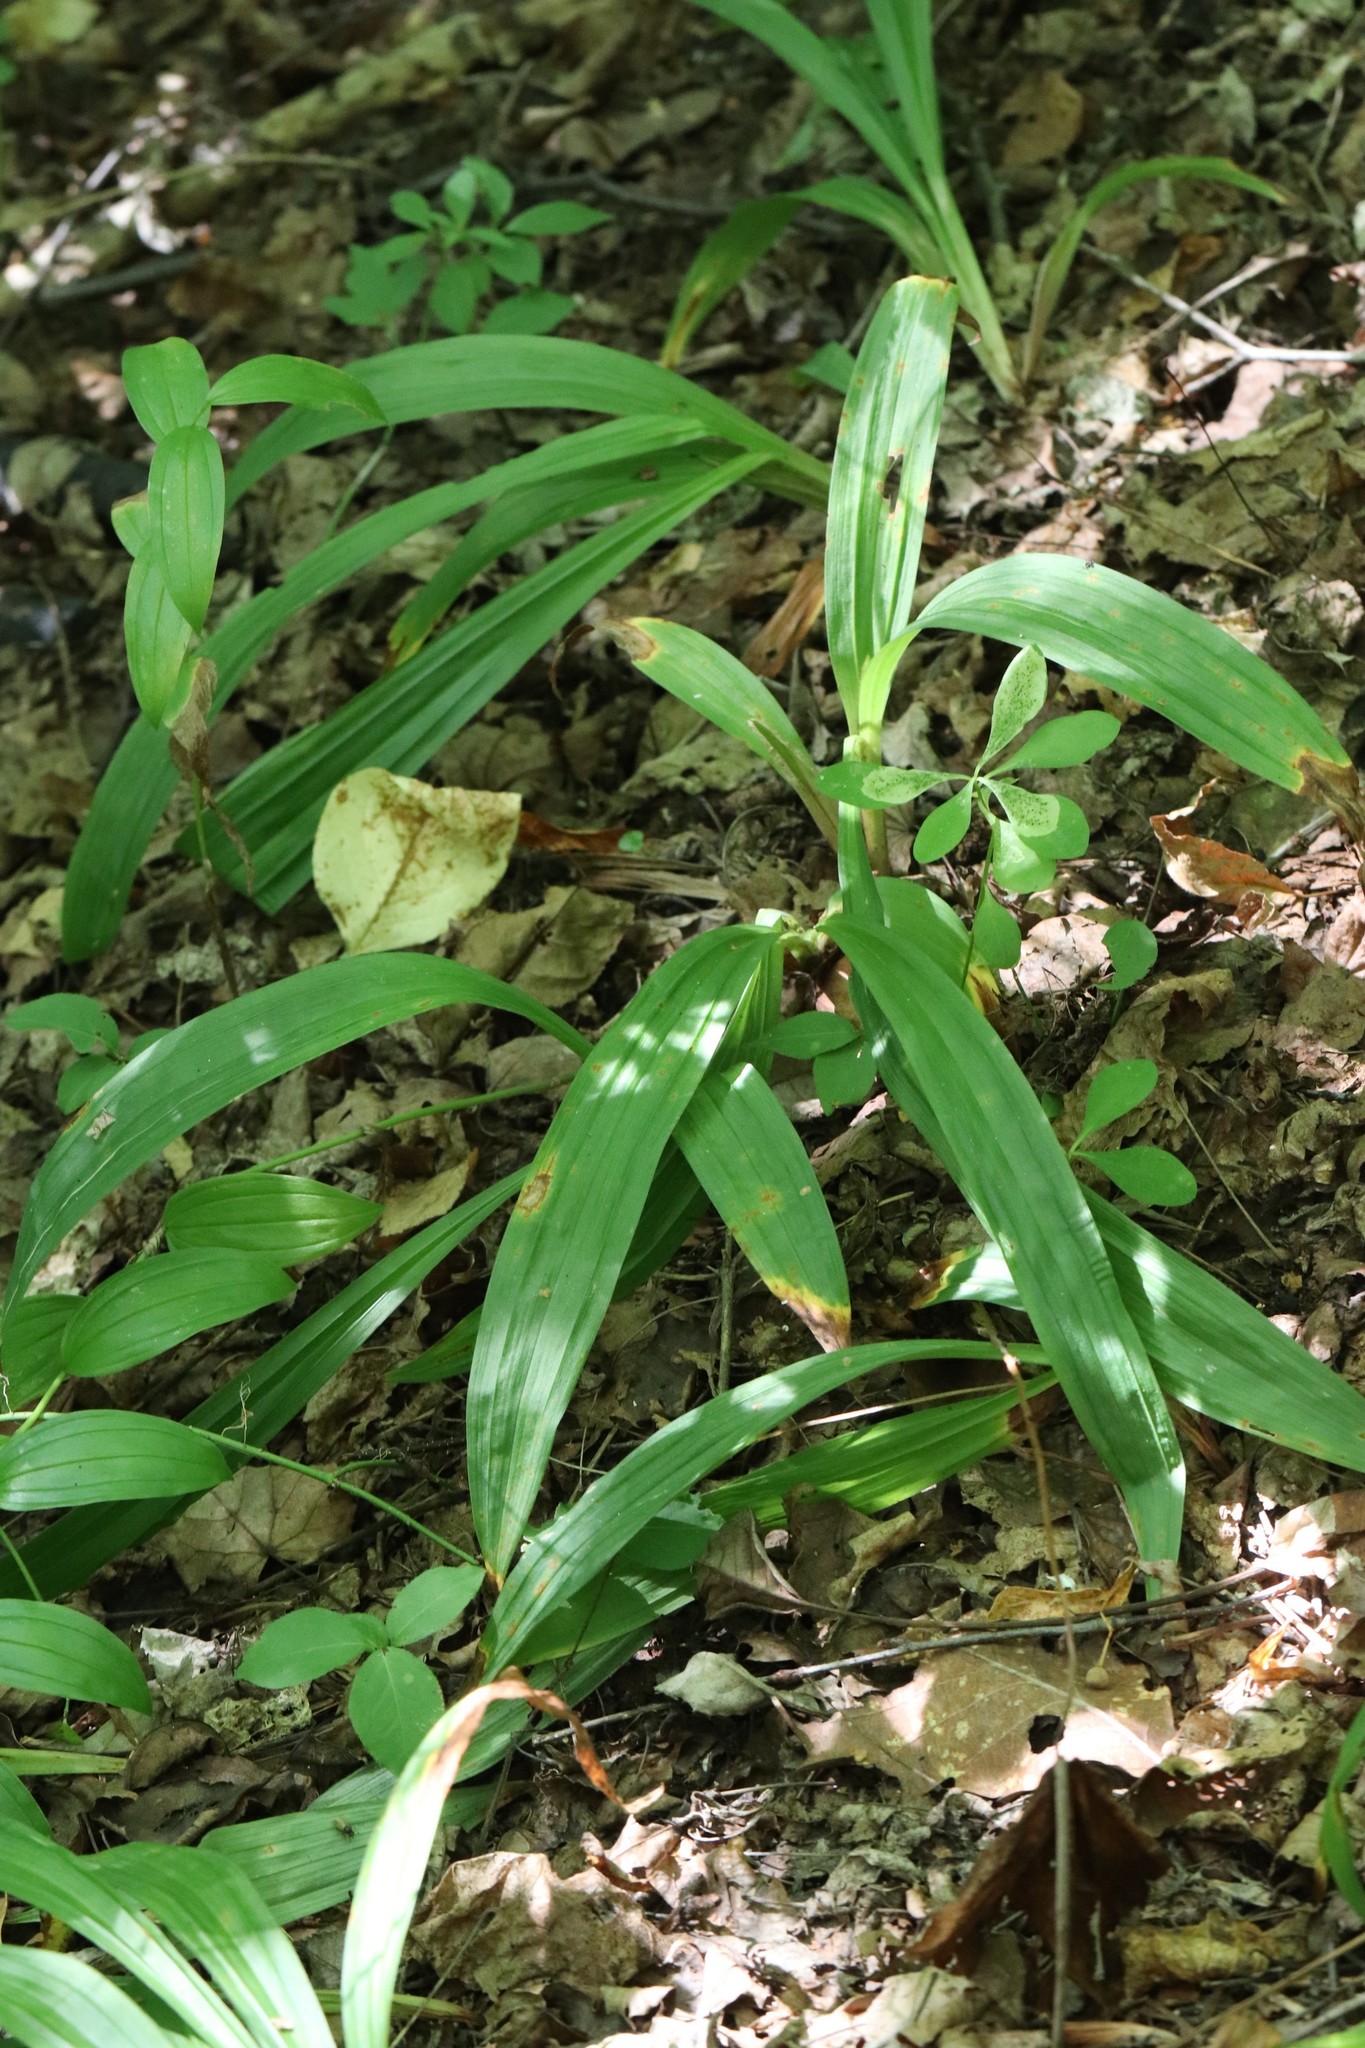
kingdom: Plantae
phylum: Tracheophyta
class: Liliopsida
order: Poales
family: Cyperaceae
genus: Carex
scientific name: Carex siderosticta
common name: Broadleaf sedge
